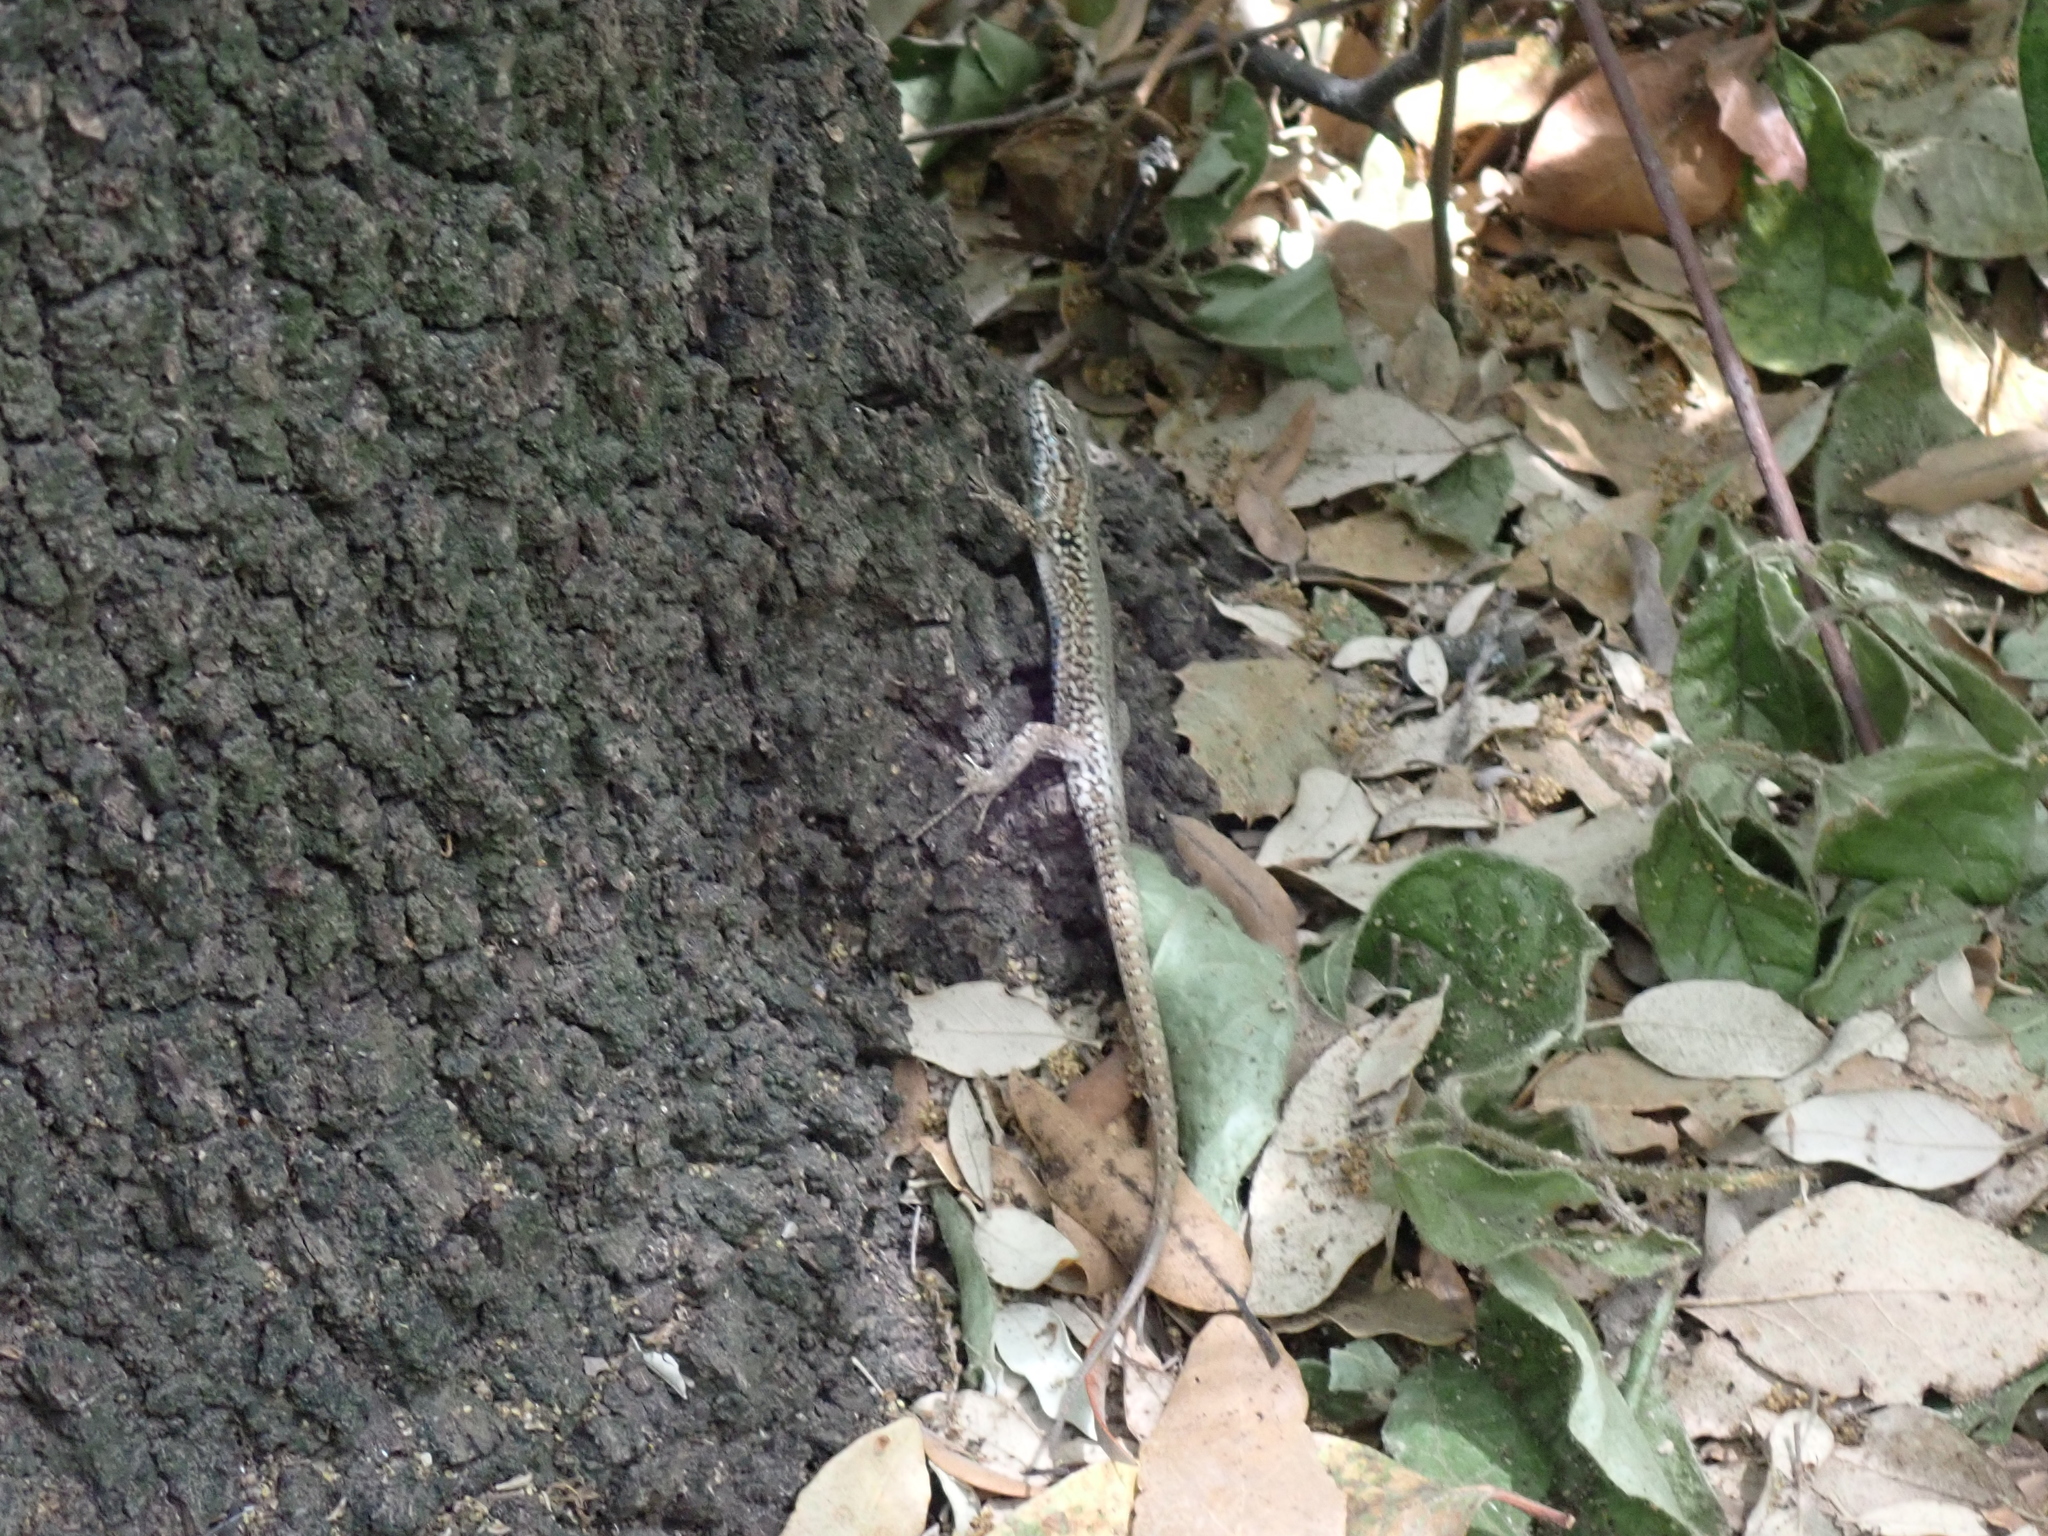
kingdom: Animalia
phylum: Chordata
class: Squamata
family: Lacertidae
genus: Podarcis
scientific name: Podarcis muralis
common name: Common wall lizard
